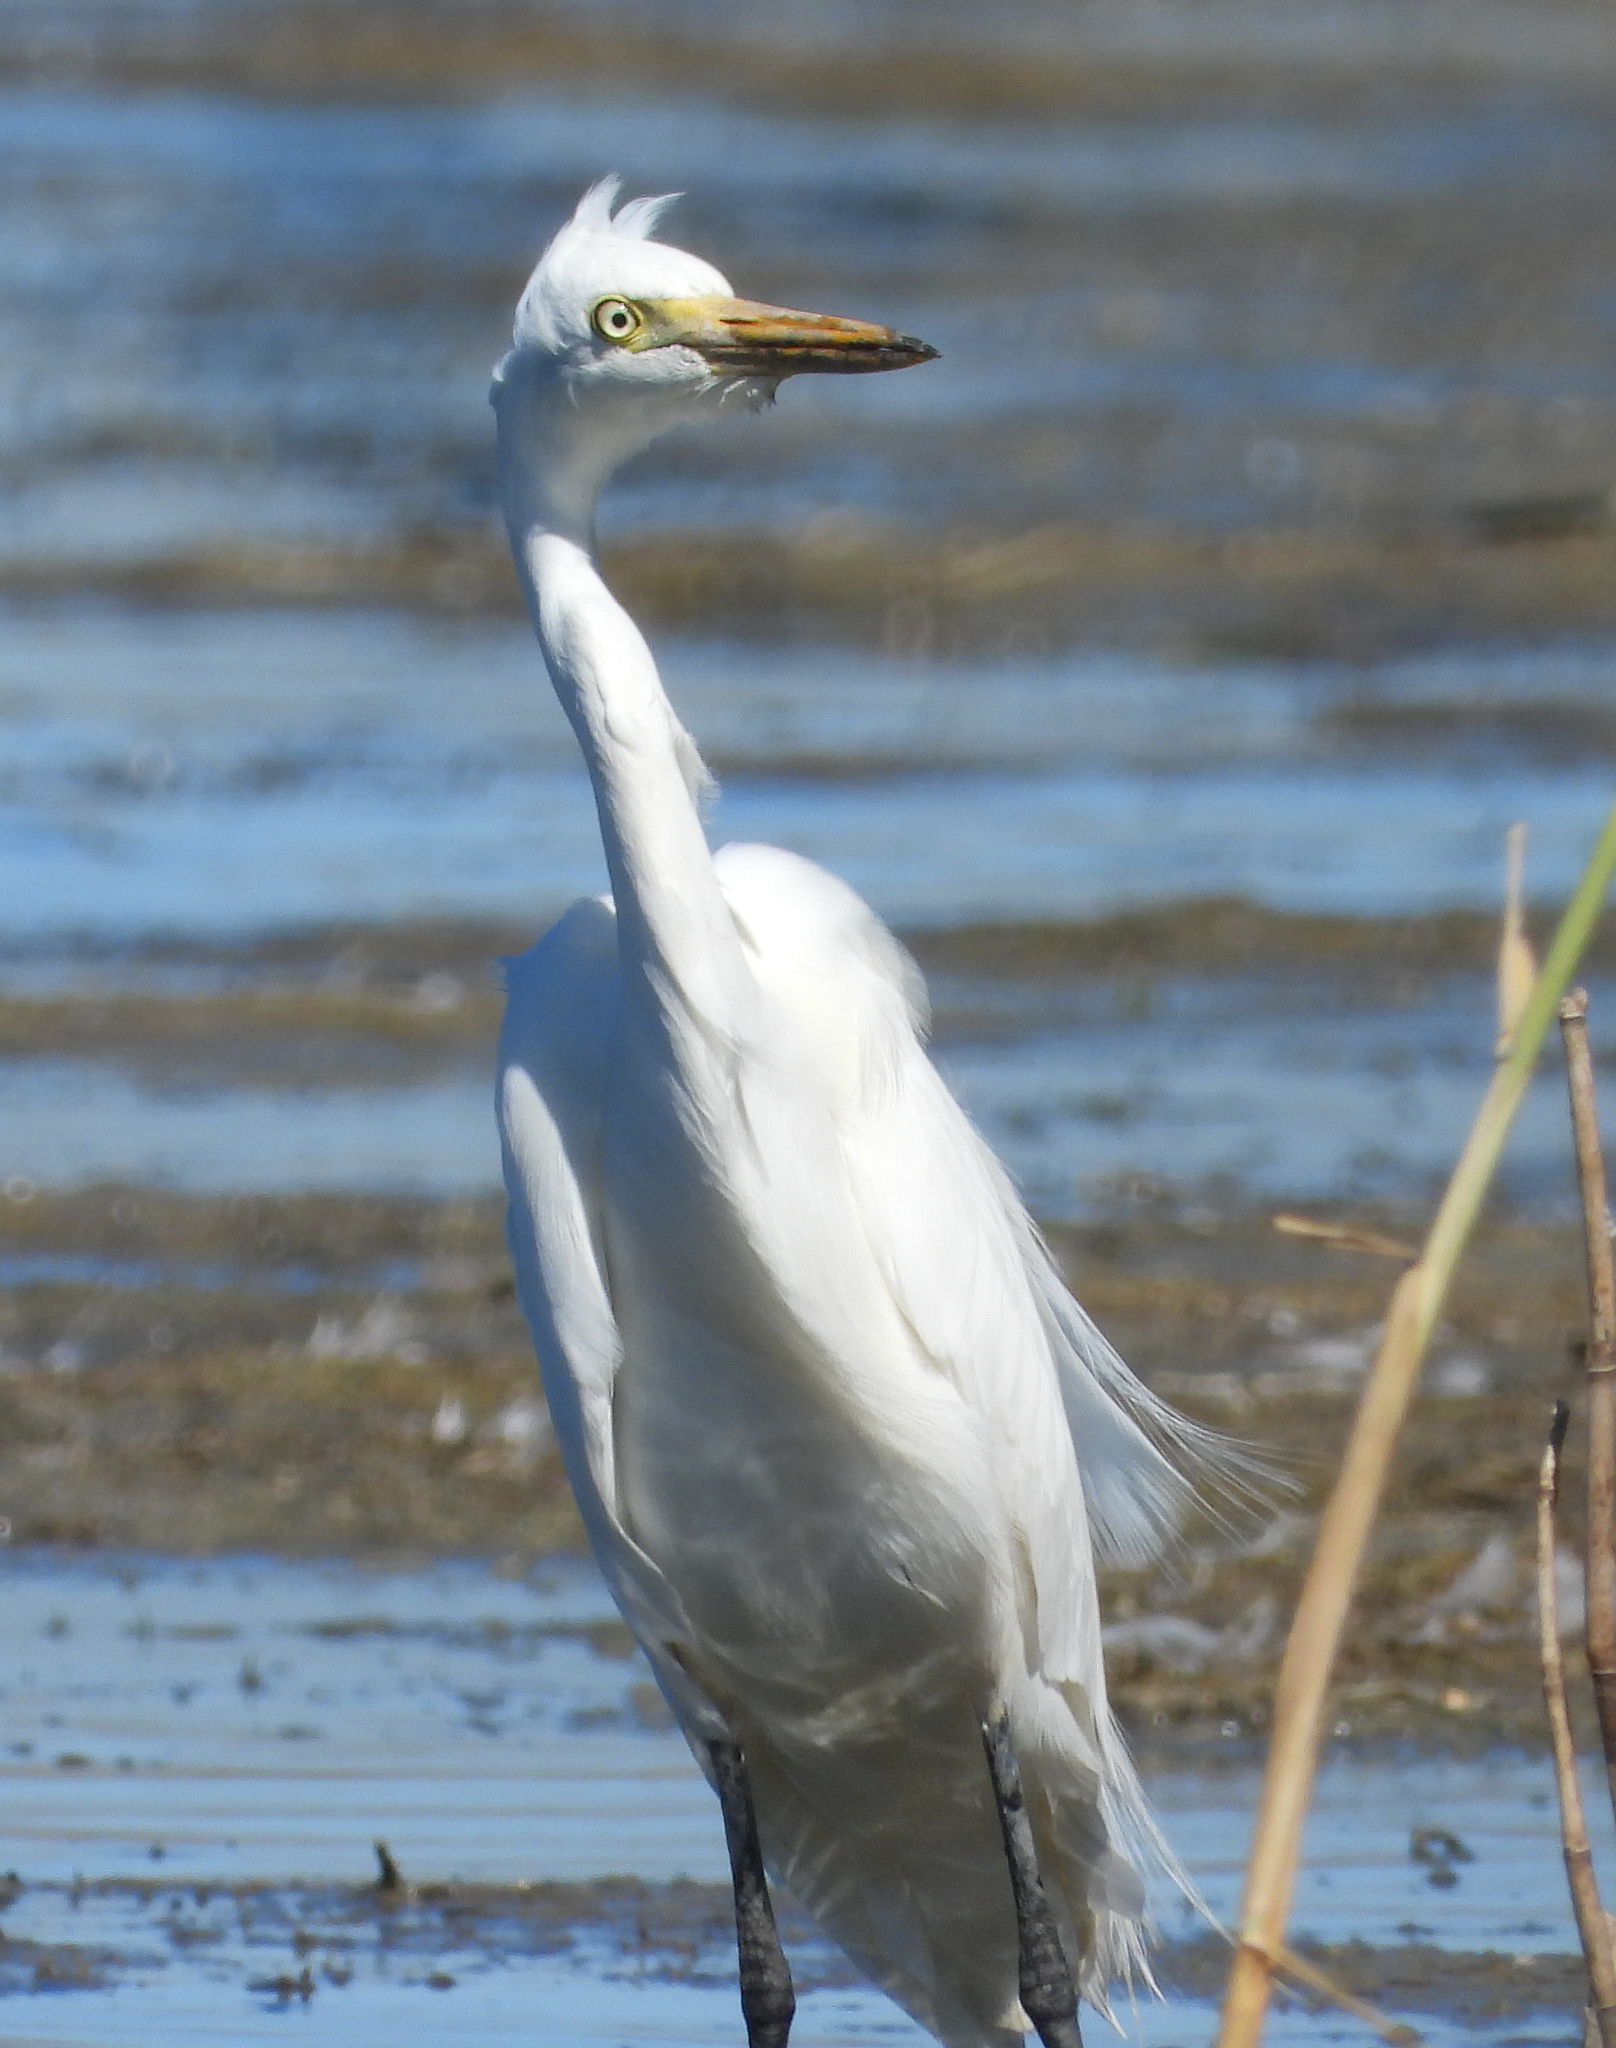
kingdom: Animalia
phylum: Chordata
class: Aves
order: Pelecaniformes
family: Ardeidae
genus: Egretta
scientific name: Egretta intermedia
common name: Intermediate egret
